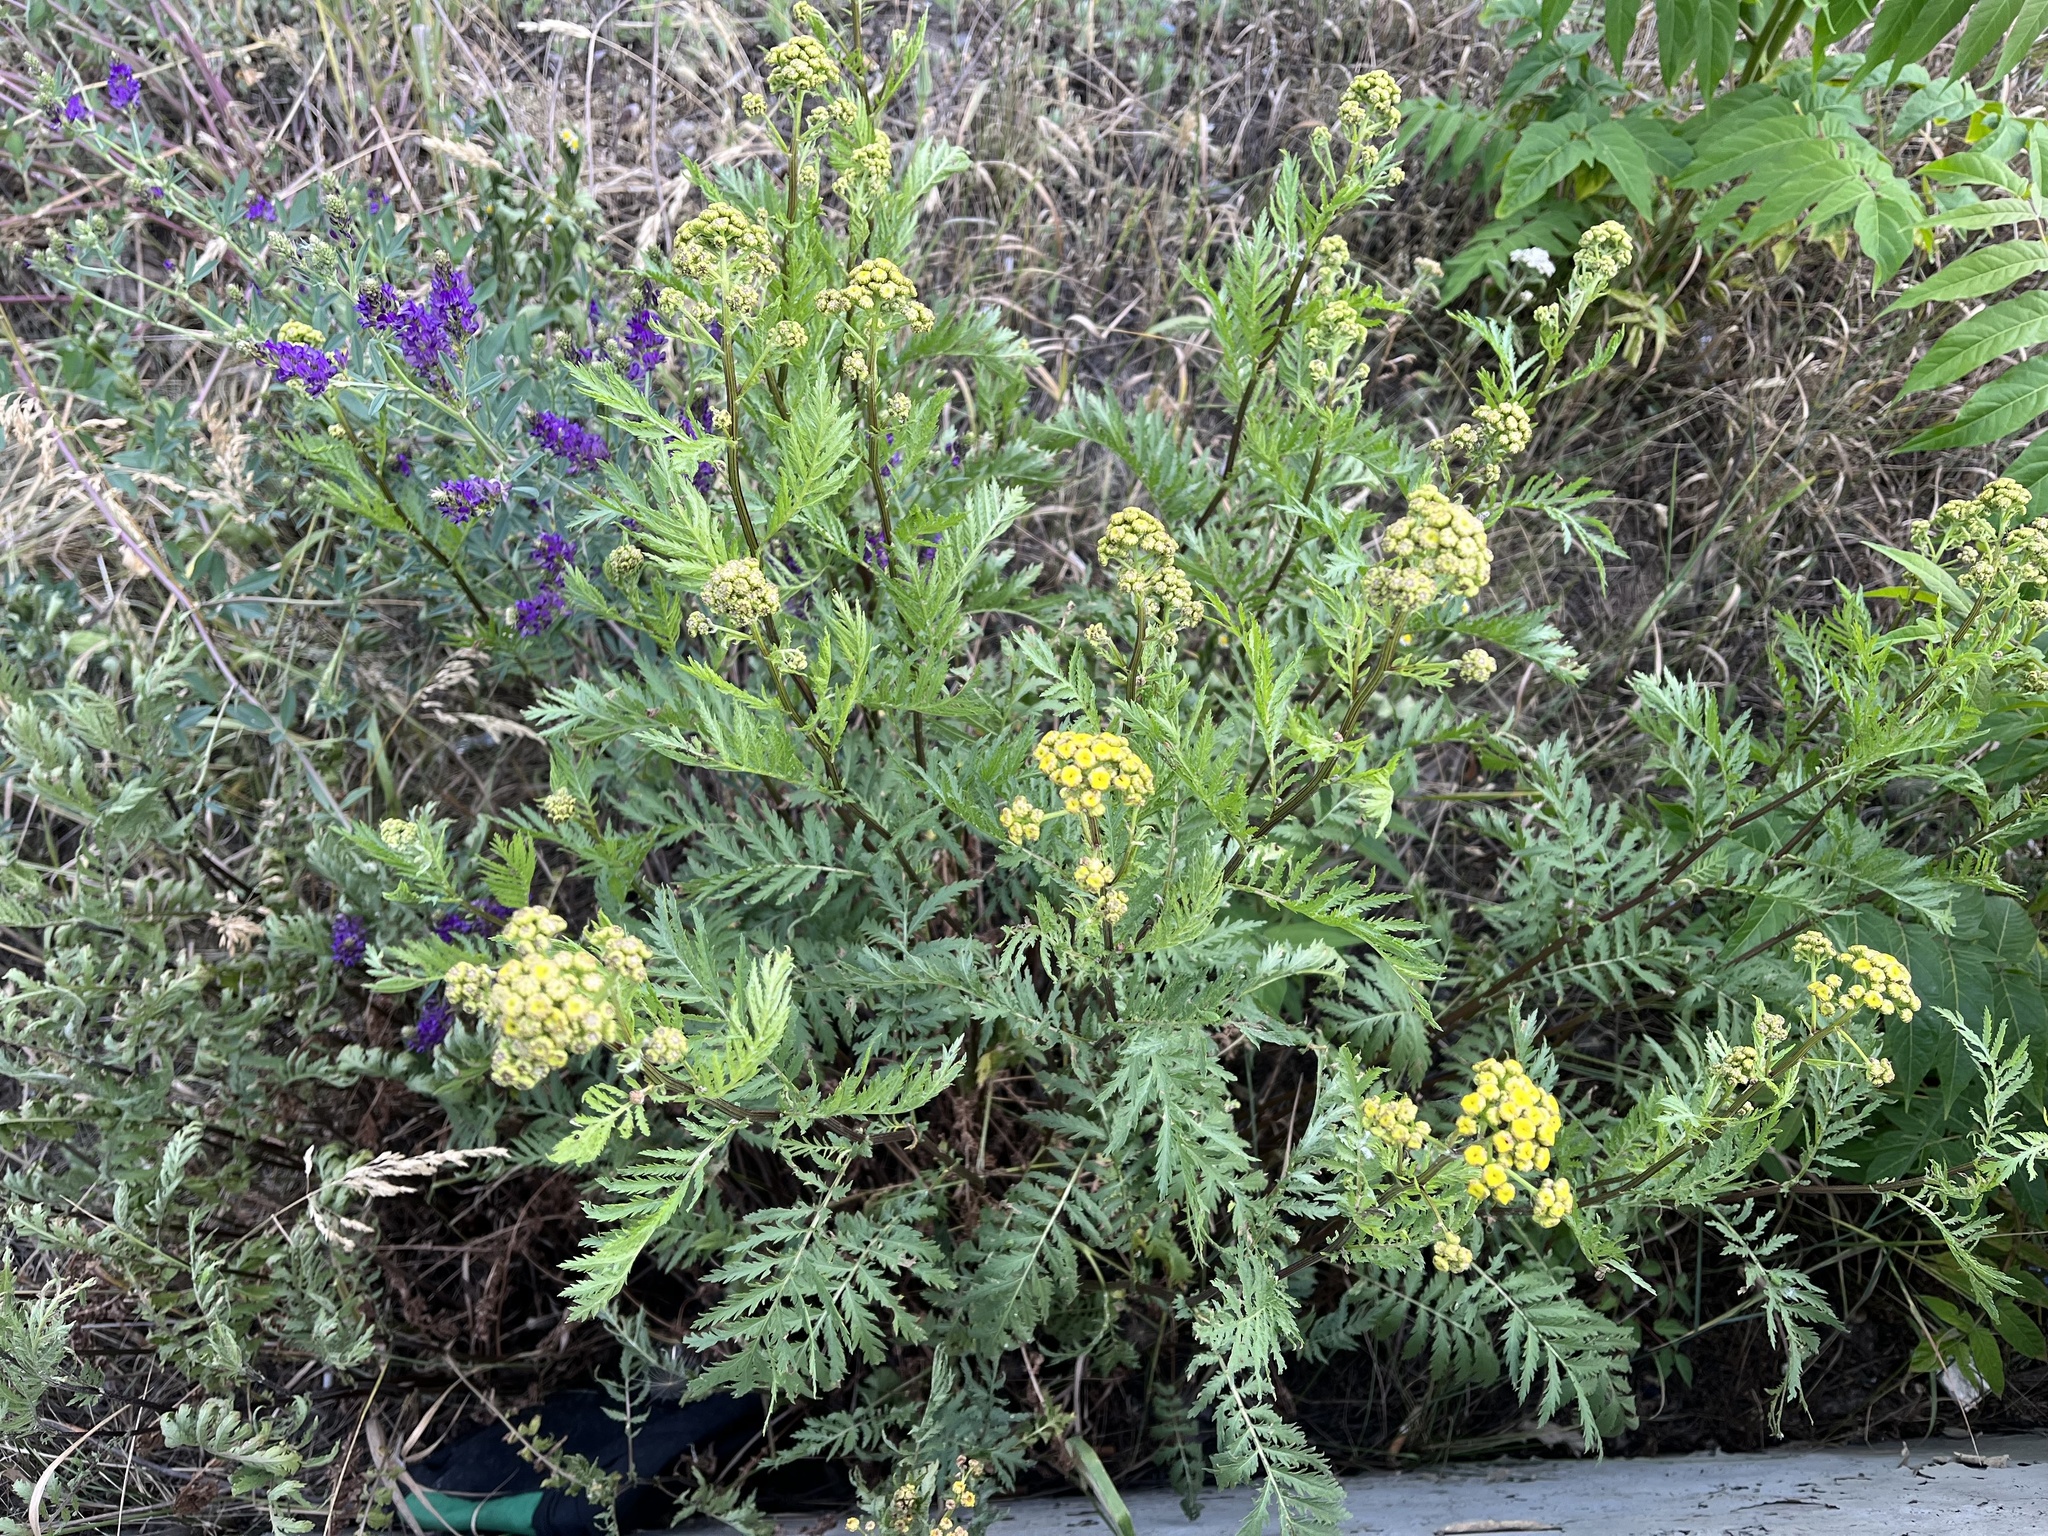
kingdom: Plantae
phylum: Tracheophyta
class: Magnoliopsida
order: Asterales
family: Asteraceae
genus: Tanacetum
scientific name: Tanacetum vulgare
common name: Common tansy
